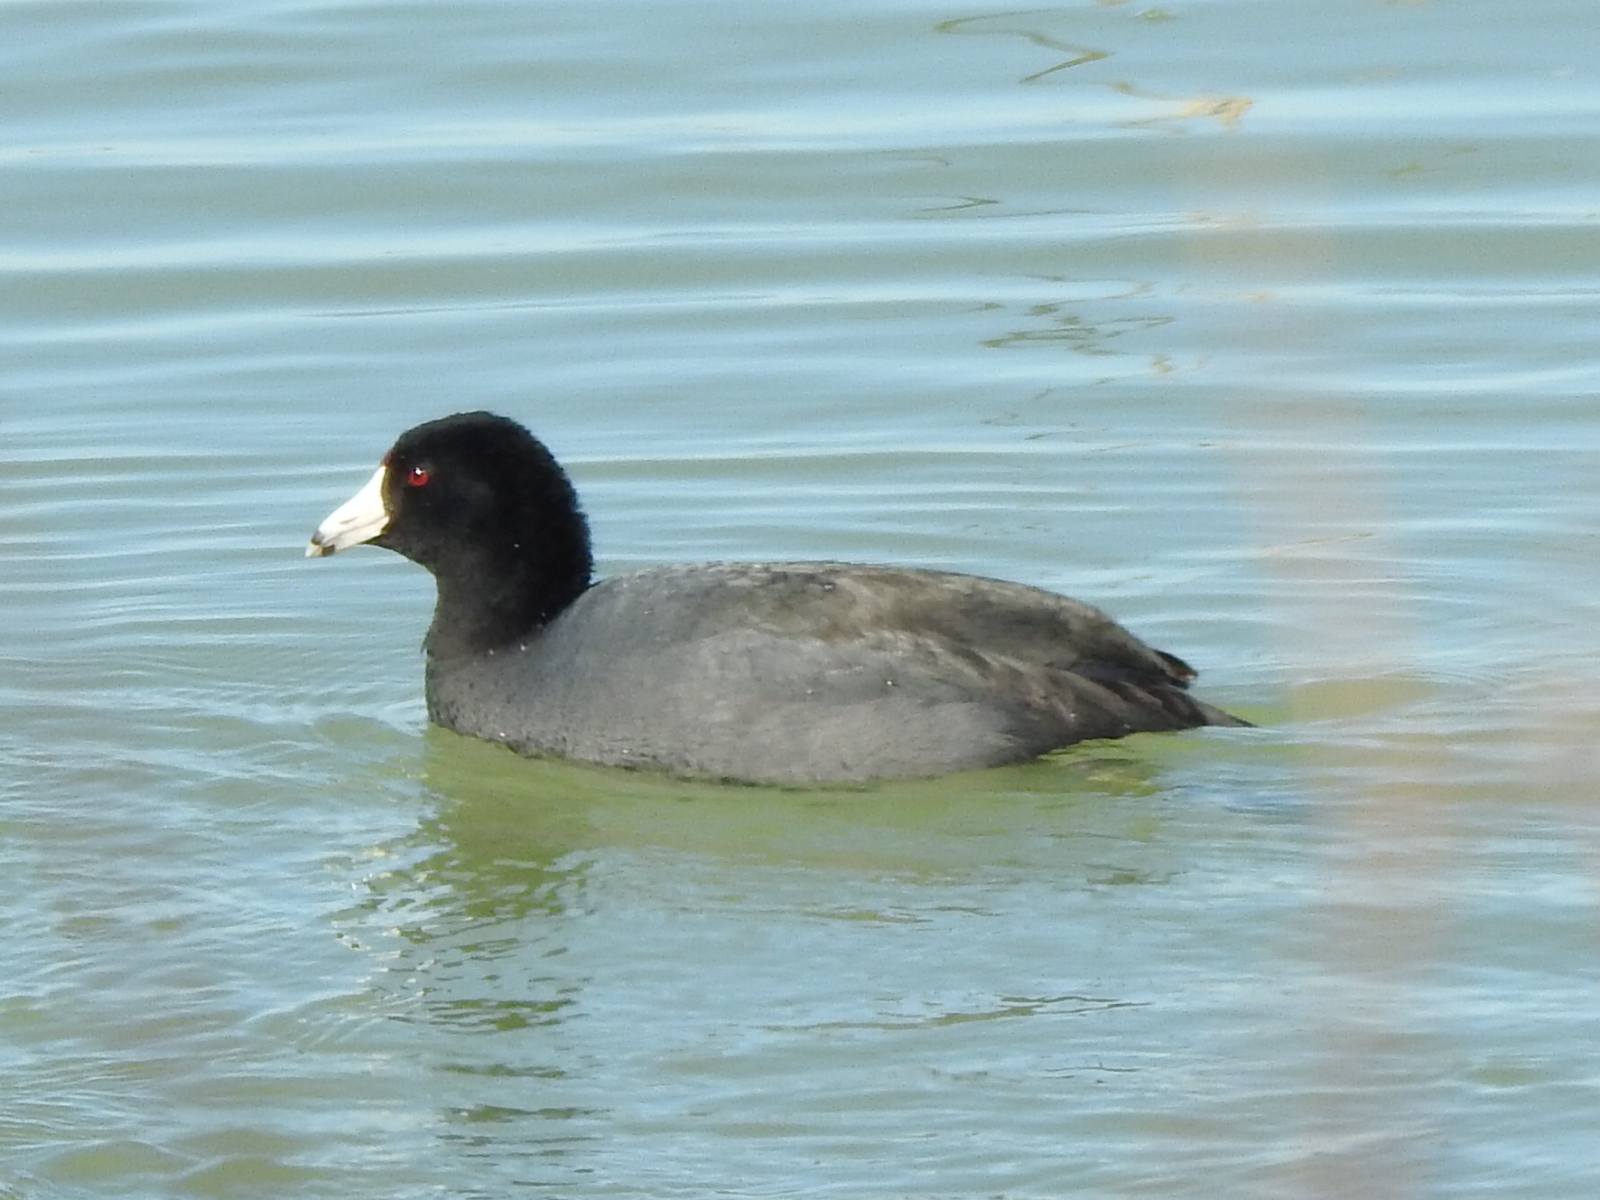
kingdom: Animalia
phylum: Chordata
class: Aves
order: Gruiformes
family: Rallidae
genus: Fulica
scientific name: Fulica americana
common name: American coot
